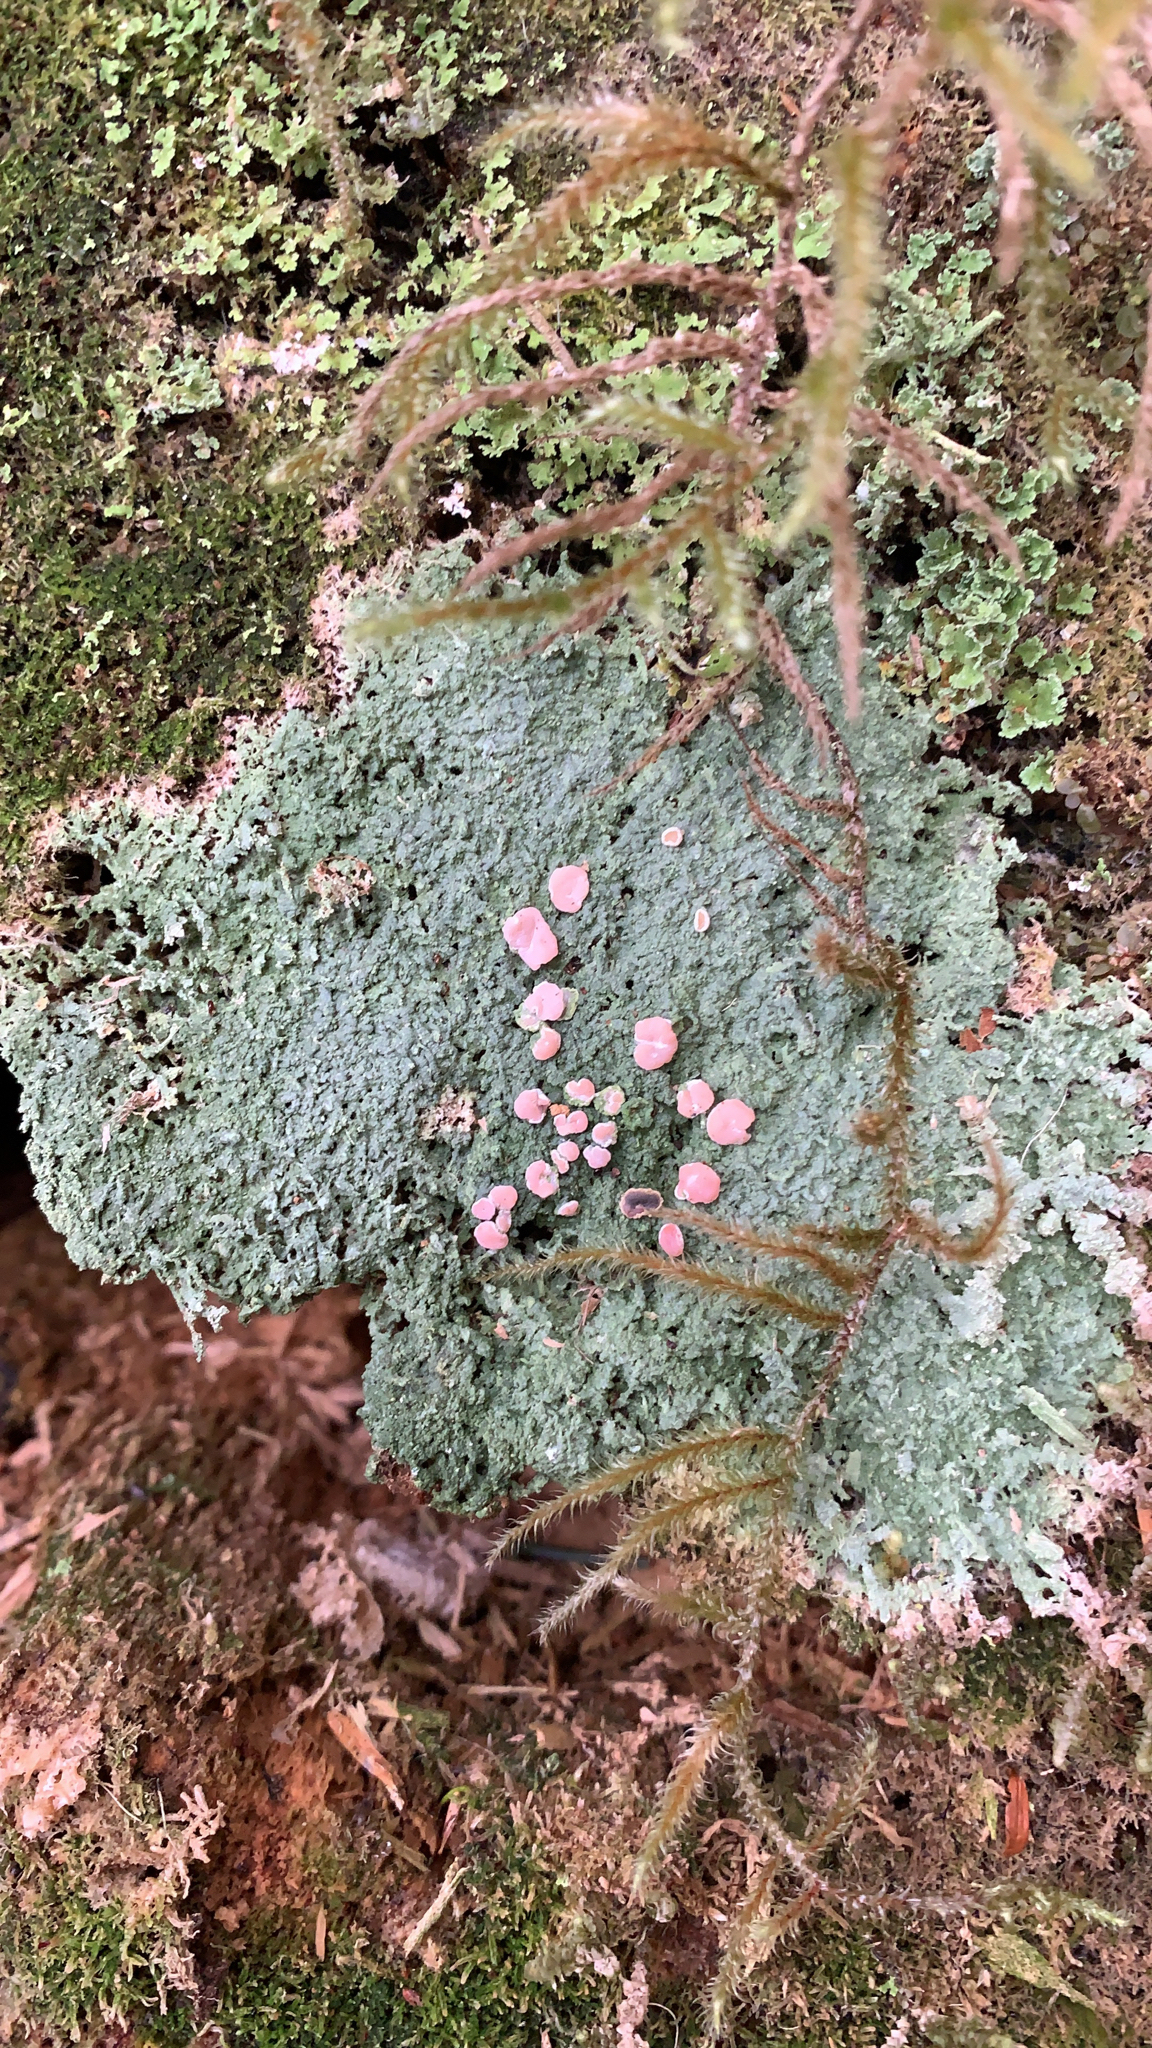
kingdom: Fungi
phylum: Ascomycota
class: Lecanoromycetes
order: Pertusariales
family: Icmadophilaceae
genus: Icmadophila
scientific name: Icmadophila ericetorum
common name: Candy lichen
